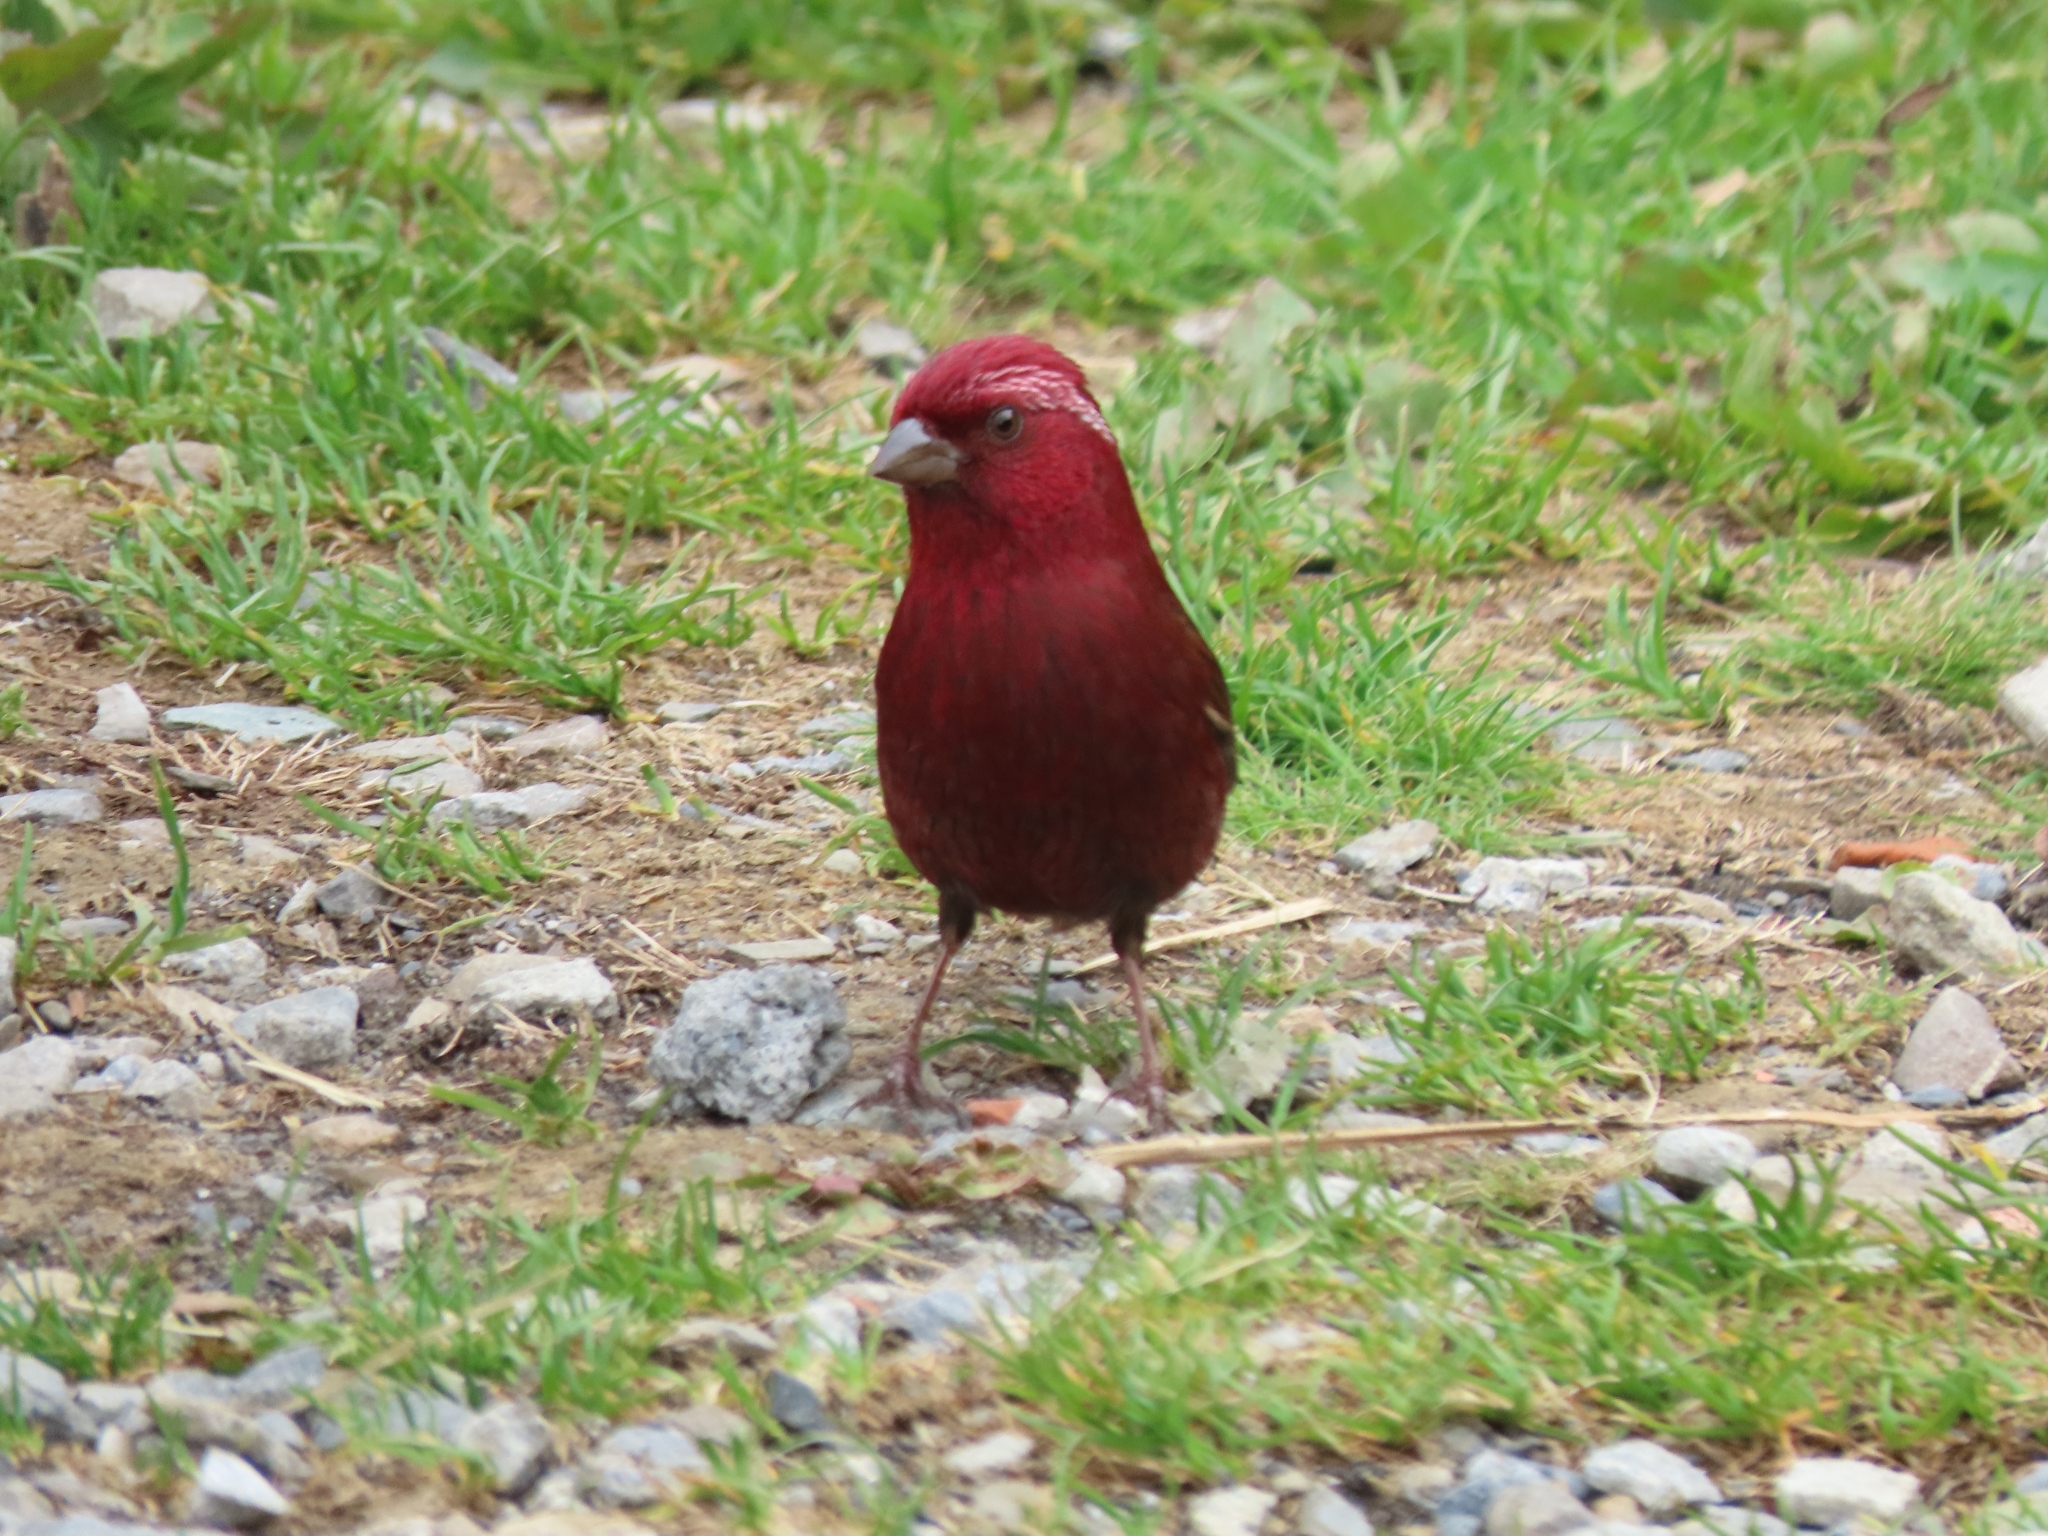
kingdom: Animalia
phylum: Chordata
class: Aves
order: Passeriformes
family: Fringillidae
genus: Carpodacus
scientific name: Carpodacus formosanus
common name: Taiwan rosefinch
